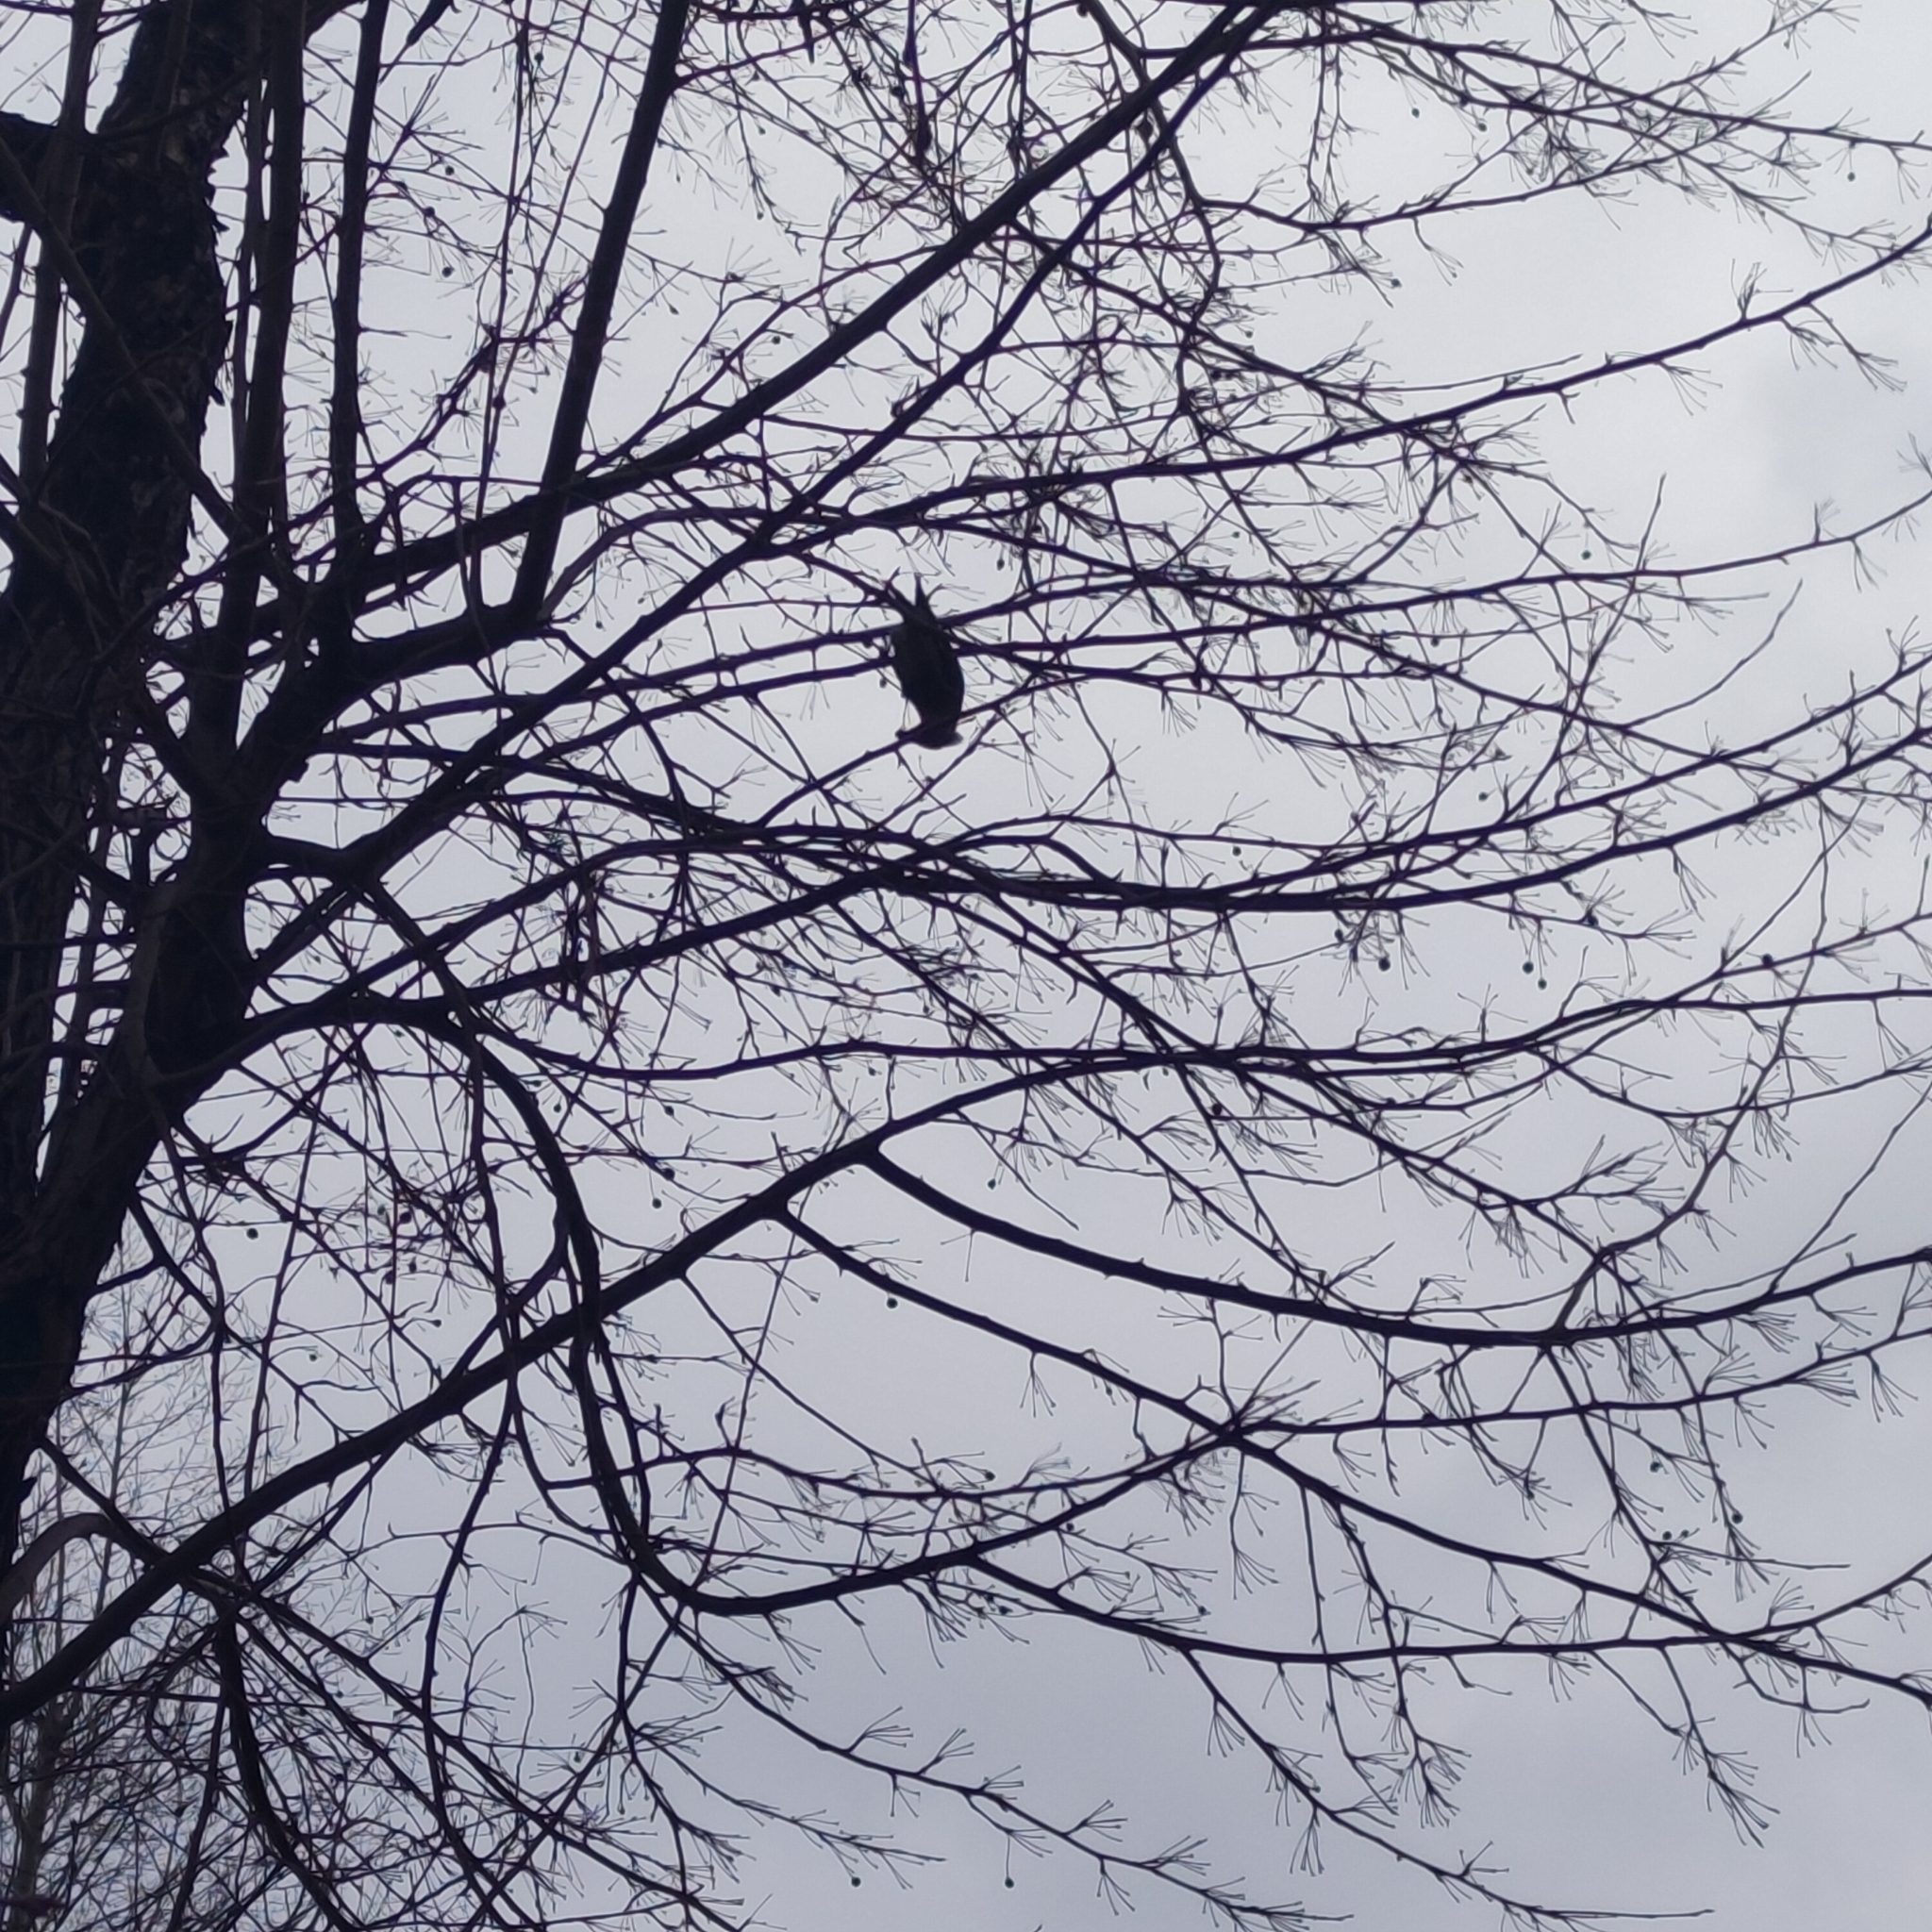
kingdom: Animalia
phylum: Chordata
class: Aves
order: Passeriformes
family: Bombycillidae
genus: Bombycilla
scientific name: Bombycilla garrulus
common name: Bohemian waxwing
